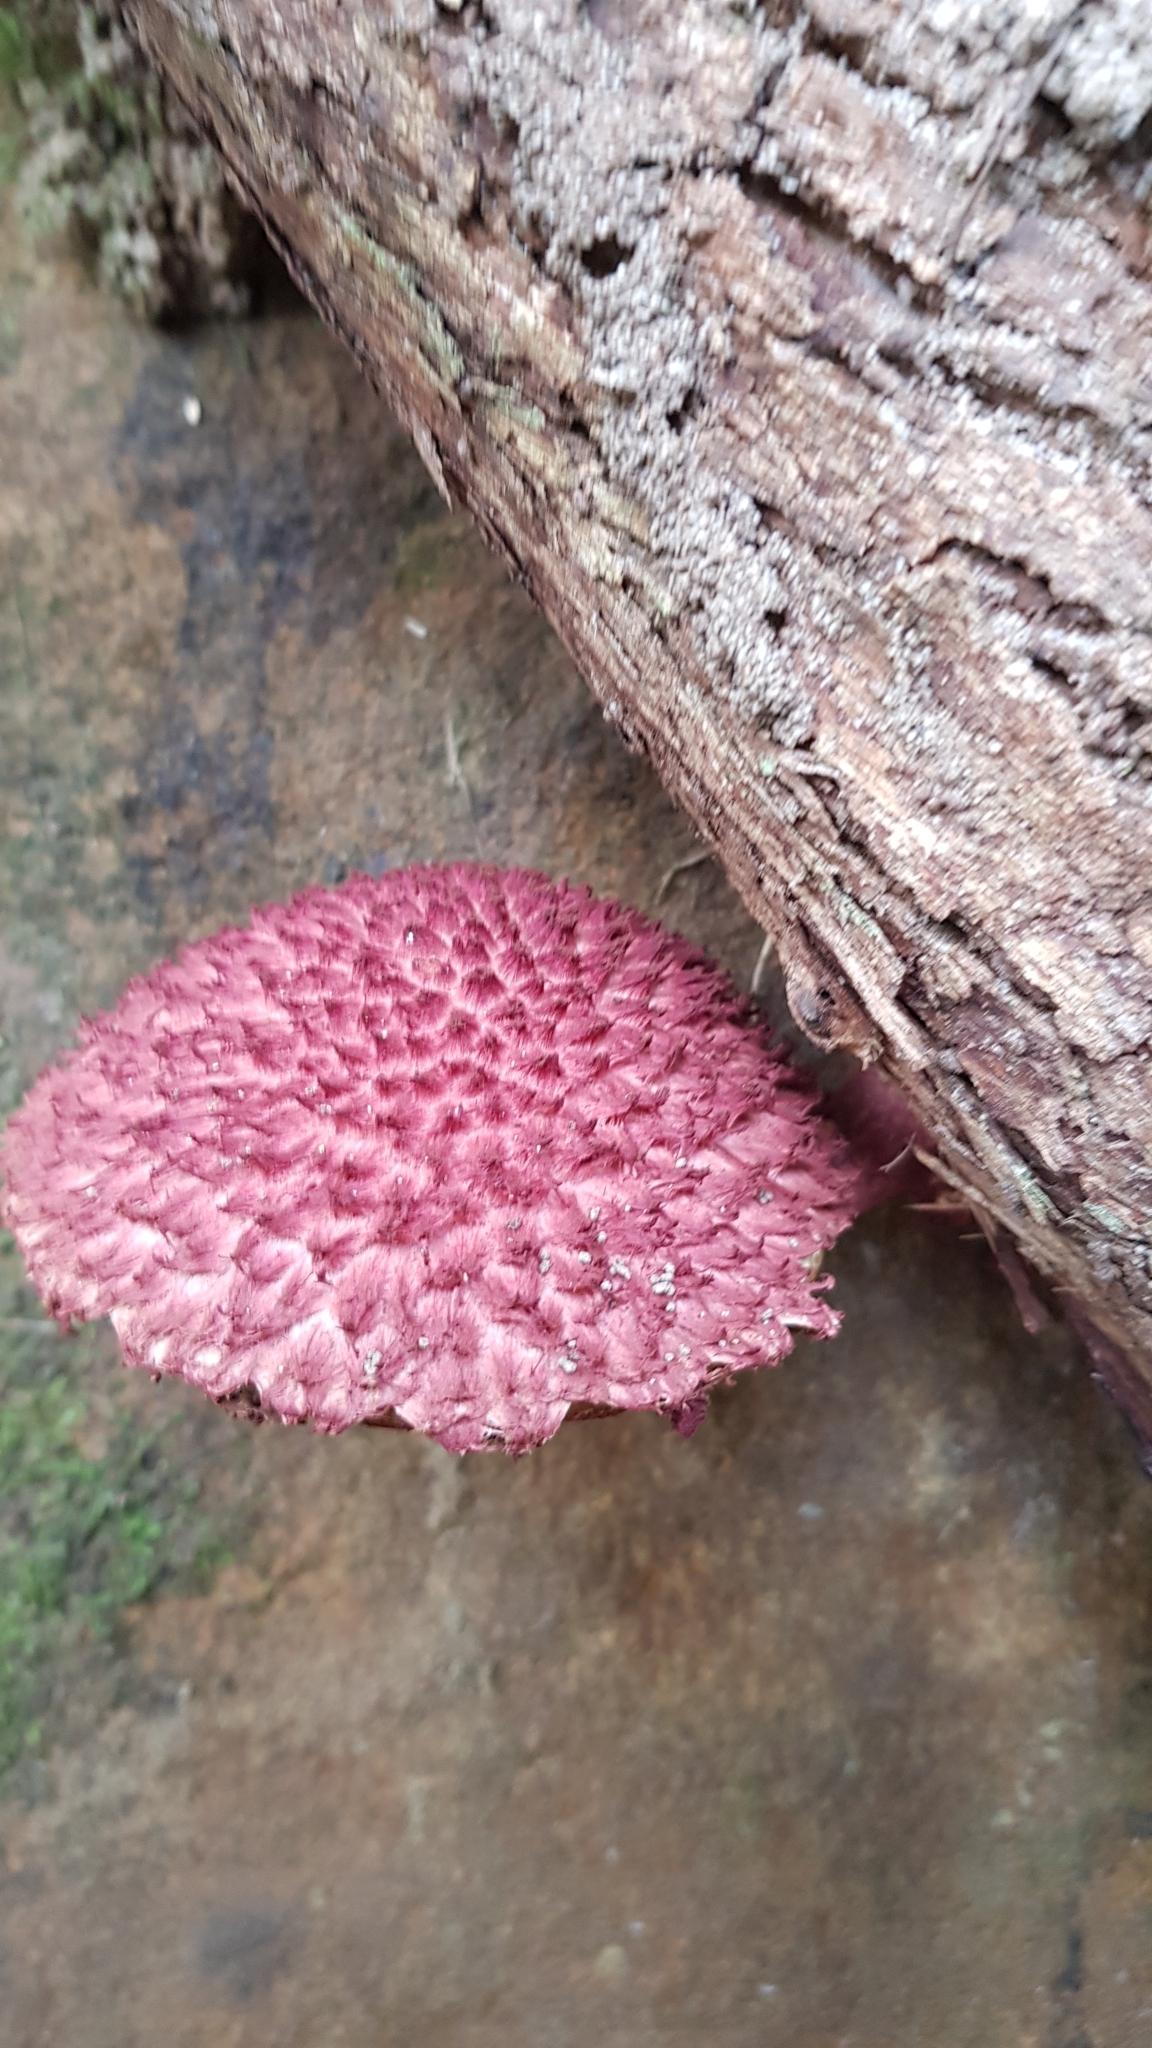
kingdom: Fungi
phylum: Basidiomycota
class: Agaricomycetes
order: Boletales
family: Boletaceae
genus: Boletellus
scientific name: Boletellus emodensis
